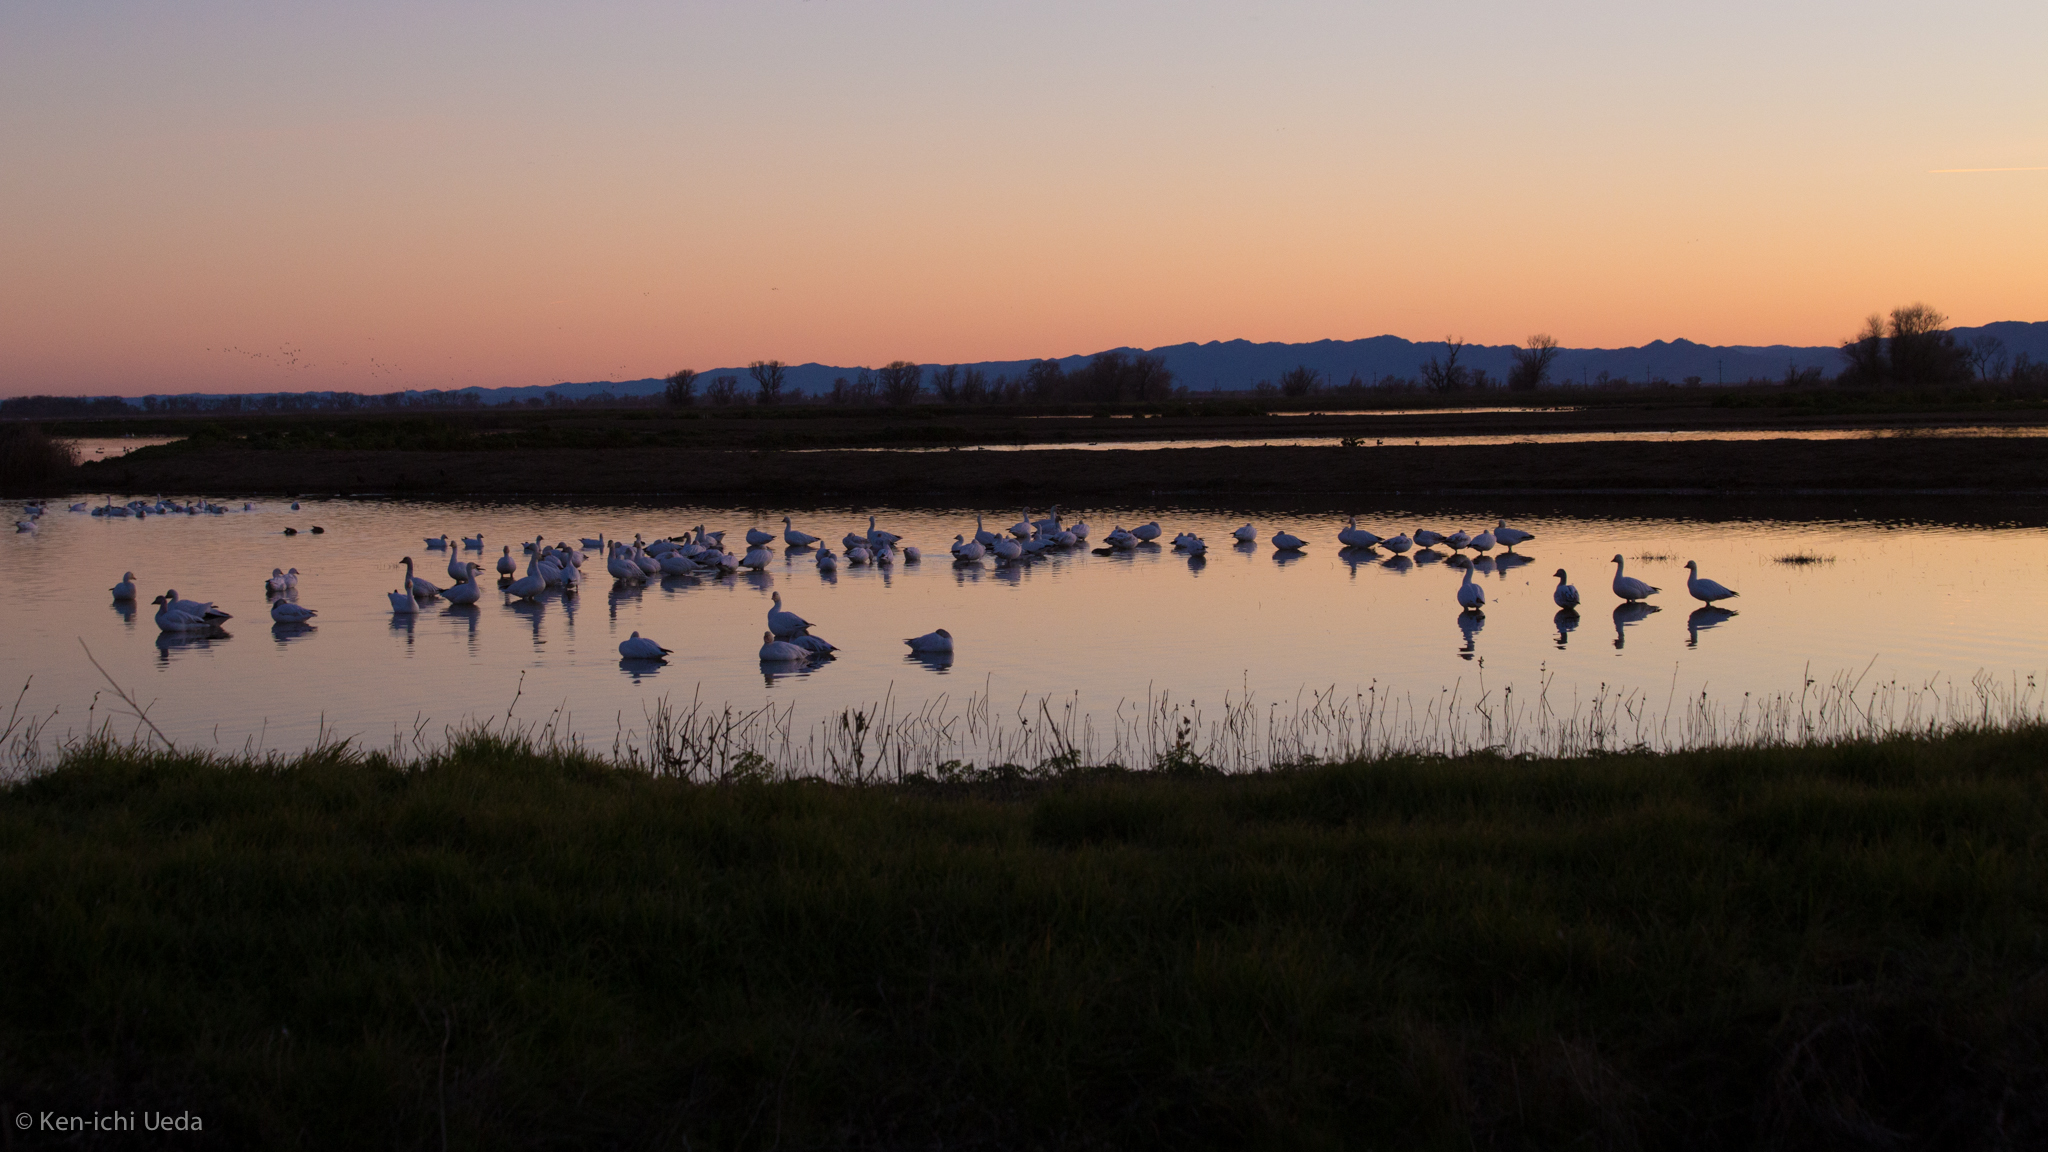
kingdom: Animalia
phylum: Chordata
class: Aves
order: Anseriformes
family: Anatidae
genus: Anser
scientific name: Anser caerulescens
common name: Snow goose
